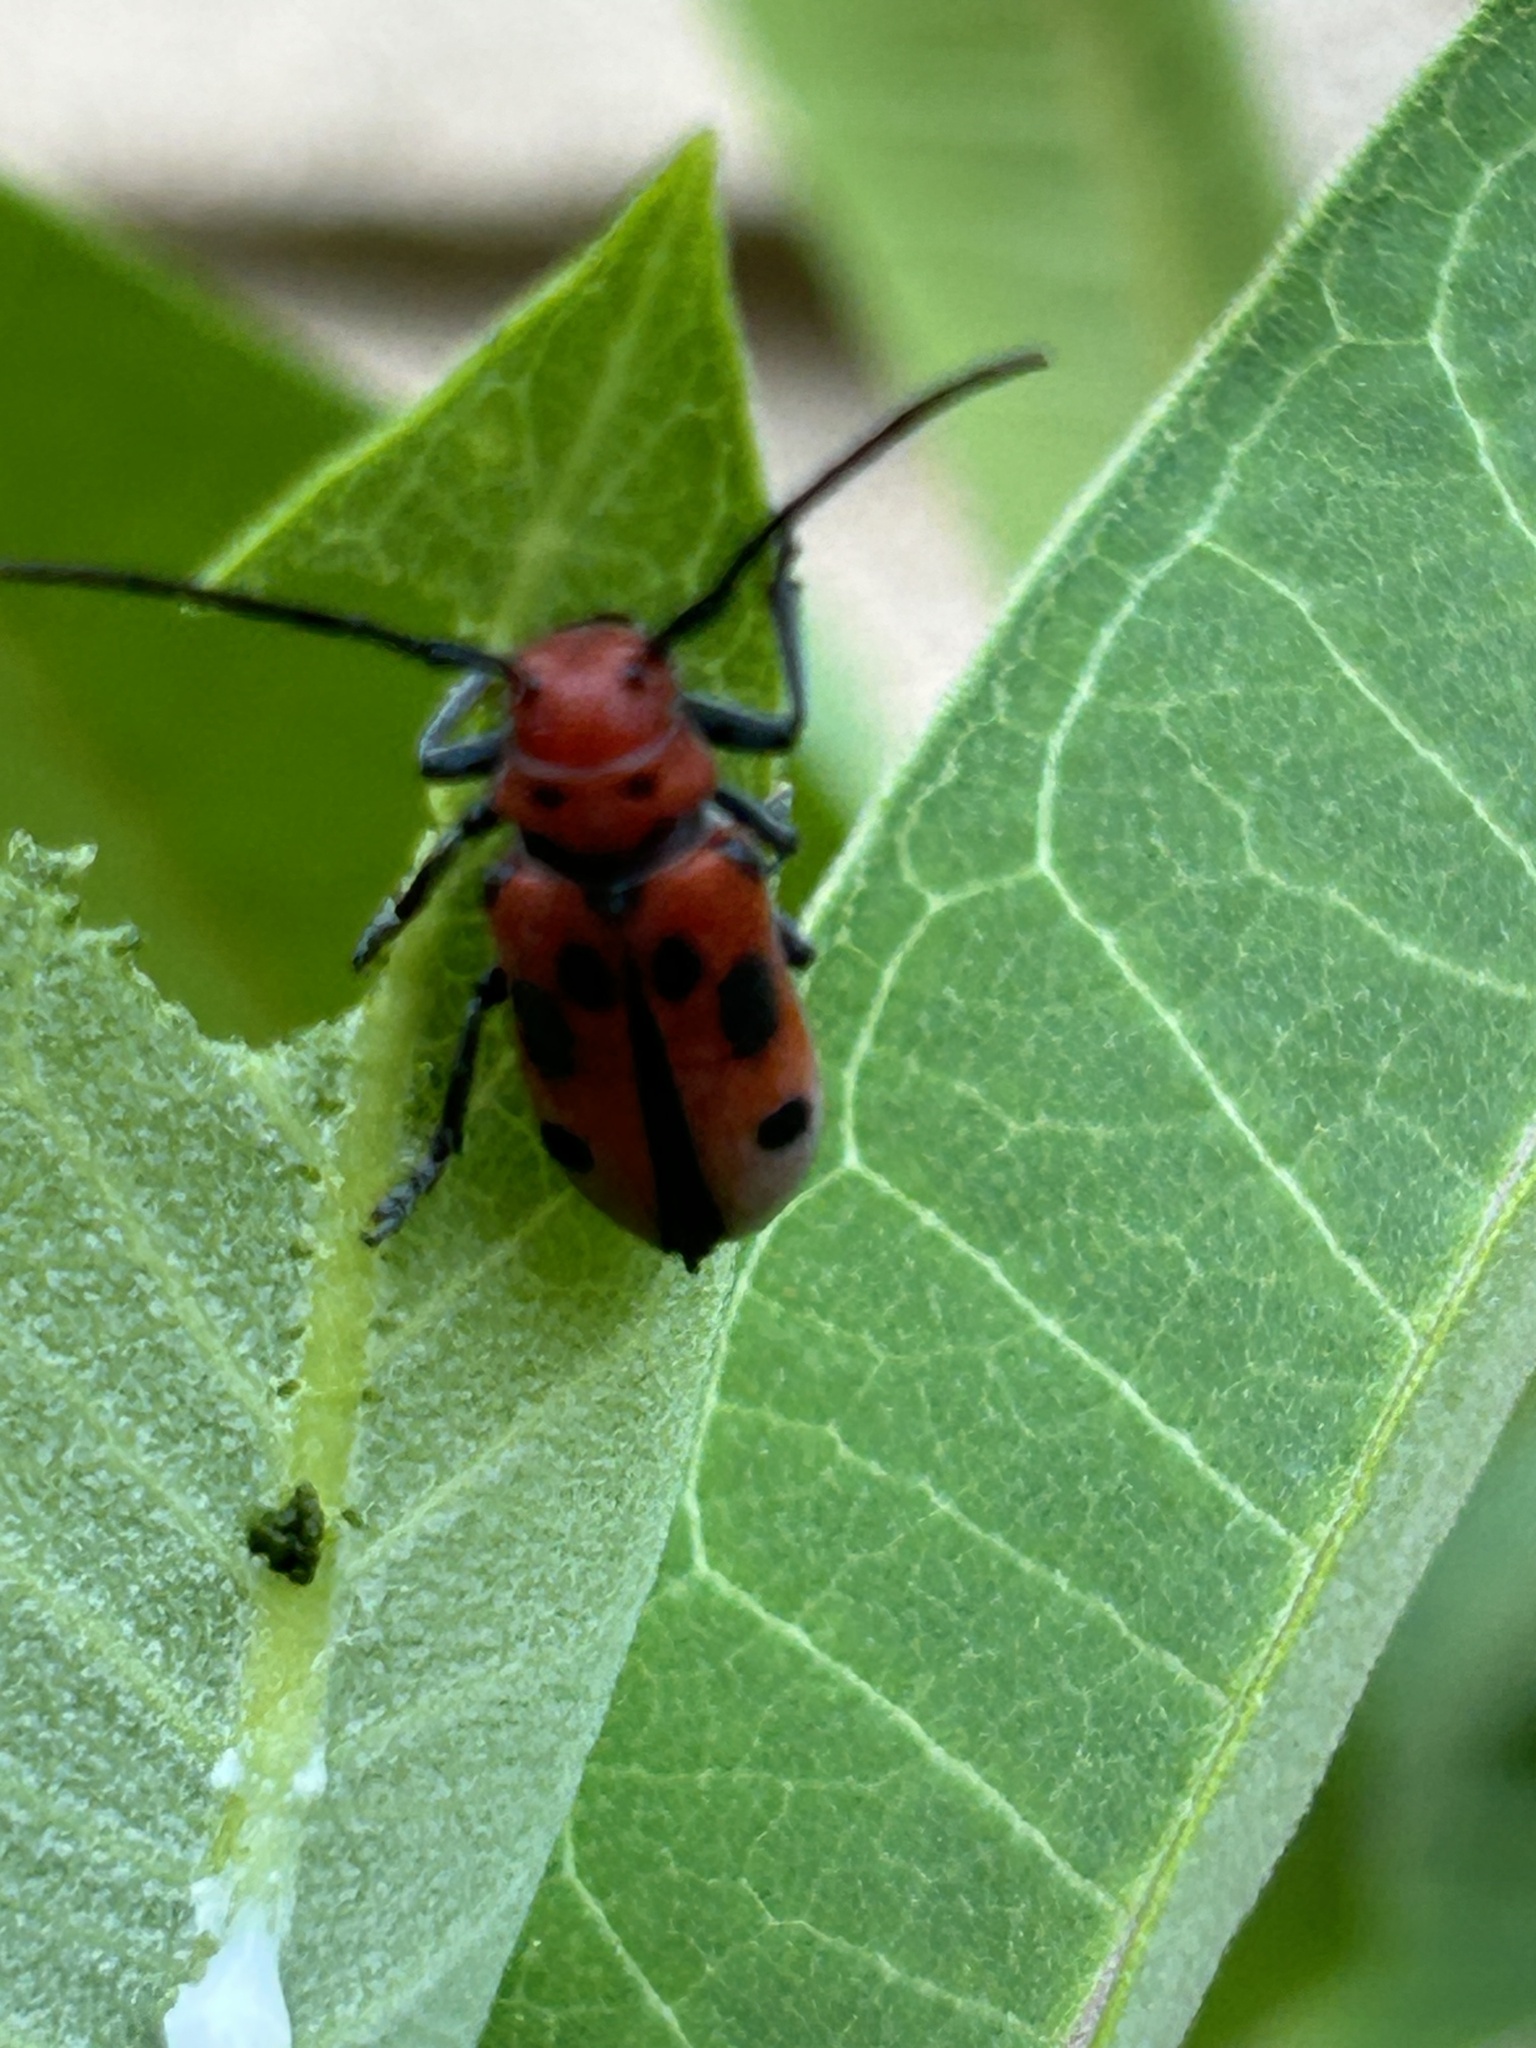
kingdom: Animalia
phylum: Arthropoda
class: Insecta
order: Coleoptera
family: Cerambycidae
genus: Tetraopes
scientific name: Tetraopes tetrophthalmus
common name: Red milkweed beetle
